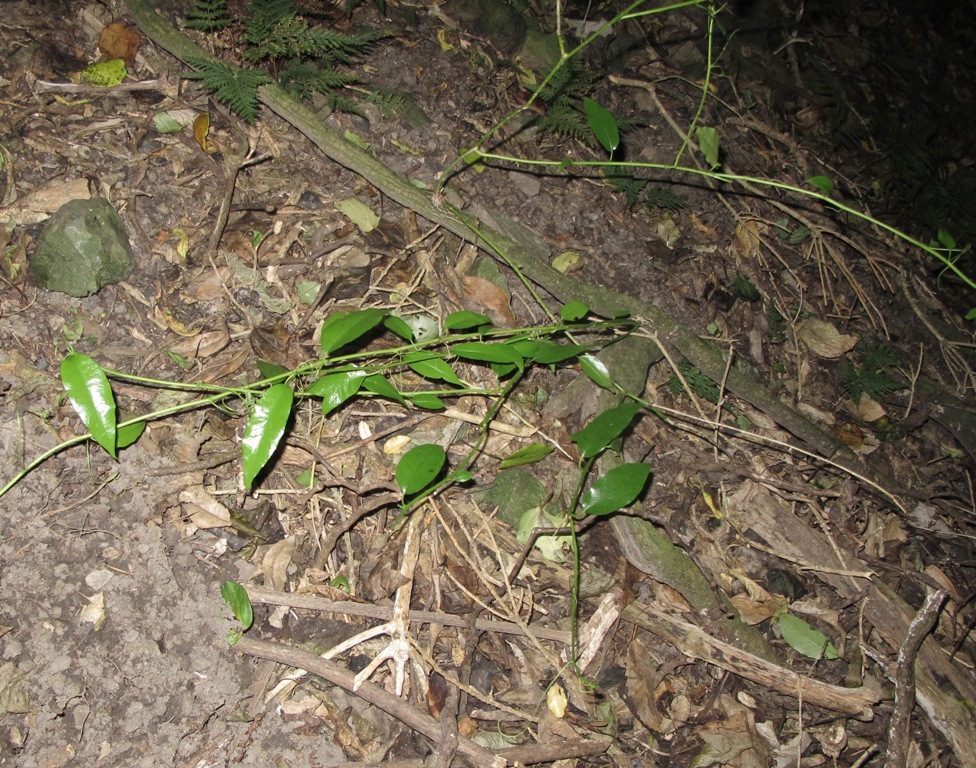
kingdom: Plantae
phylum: Tracheophyta
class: Magnoliopsida
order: Malpighiales
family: Passifloraceae
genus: Passiflora
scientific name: Passiflora tetrandra
